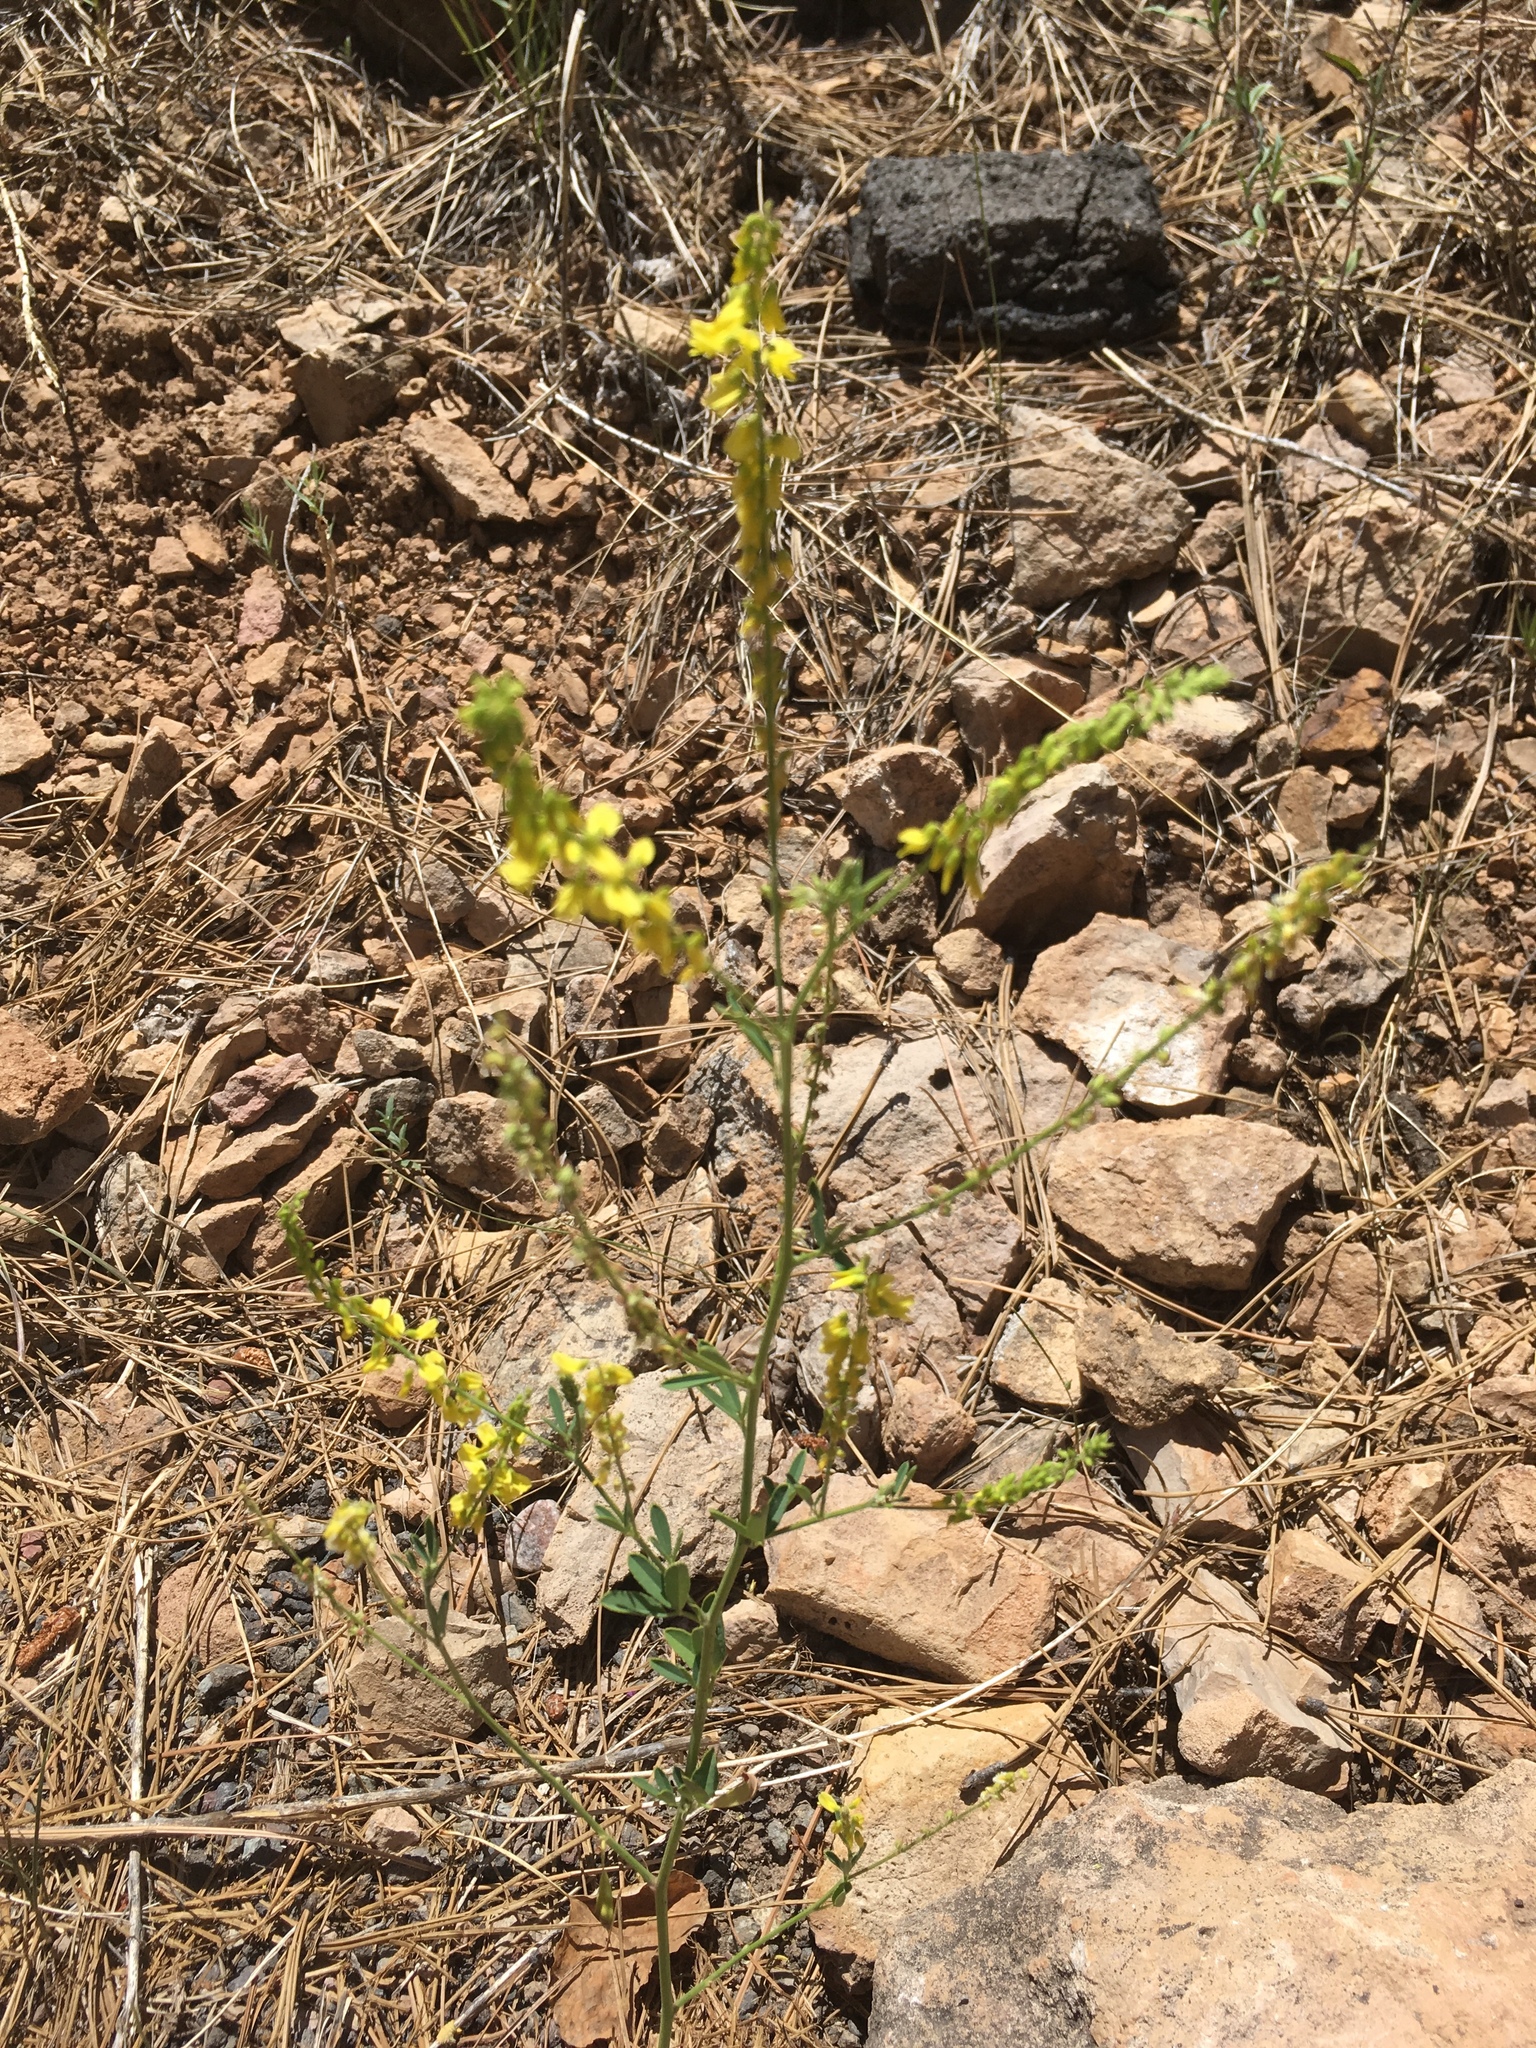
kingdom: Plantae
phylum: Tracheophyta
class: Magnoliopsida
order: Fabales
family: Fabaceae
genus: Melilotus
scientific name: Melilotus officinalis
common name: Sweetclover
